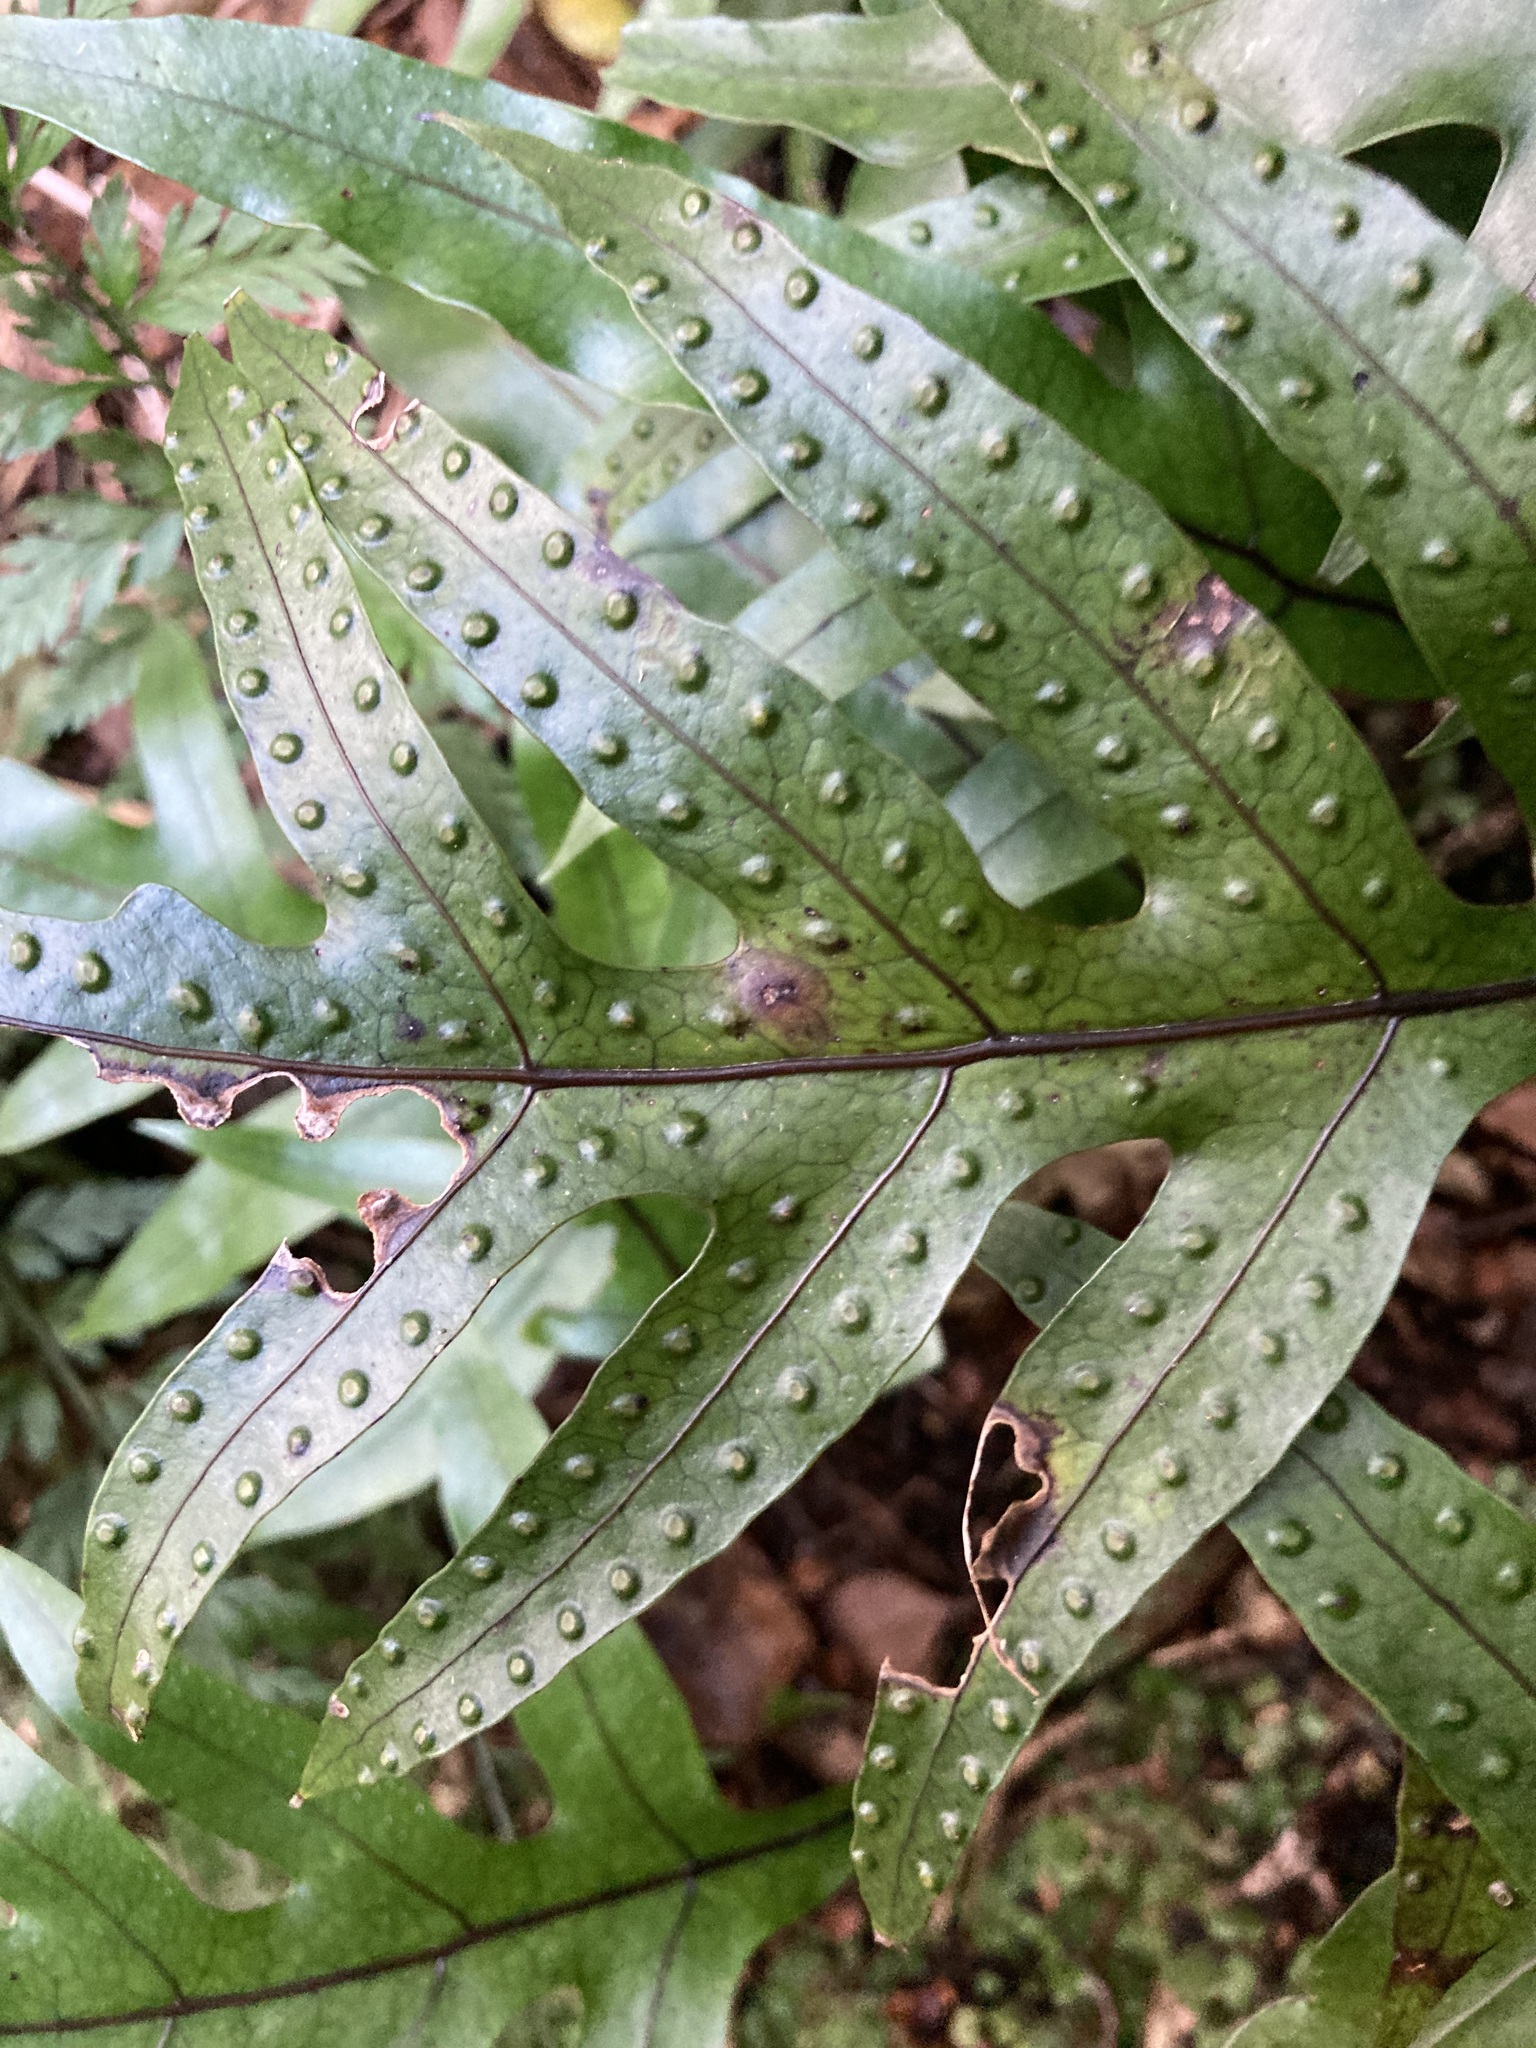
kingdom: Plantae
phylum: Tracheophyta
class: Polypodiopsida
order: Polypodiales
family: Polypodiaceae
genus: Lecanopteris
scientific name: Lecanopteris pustulata
